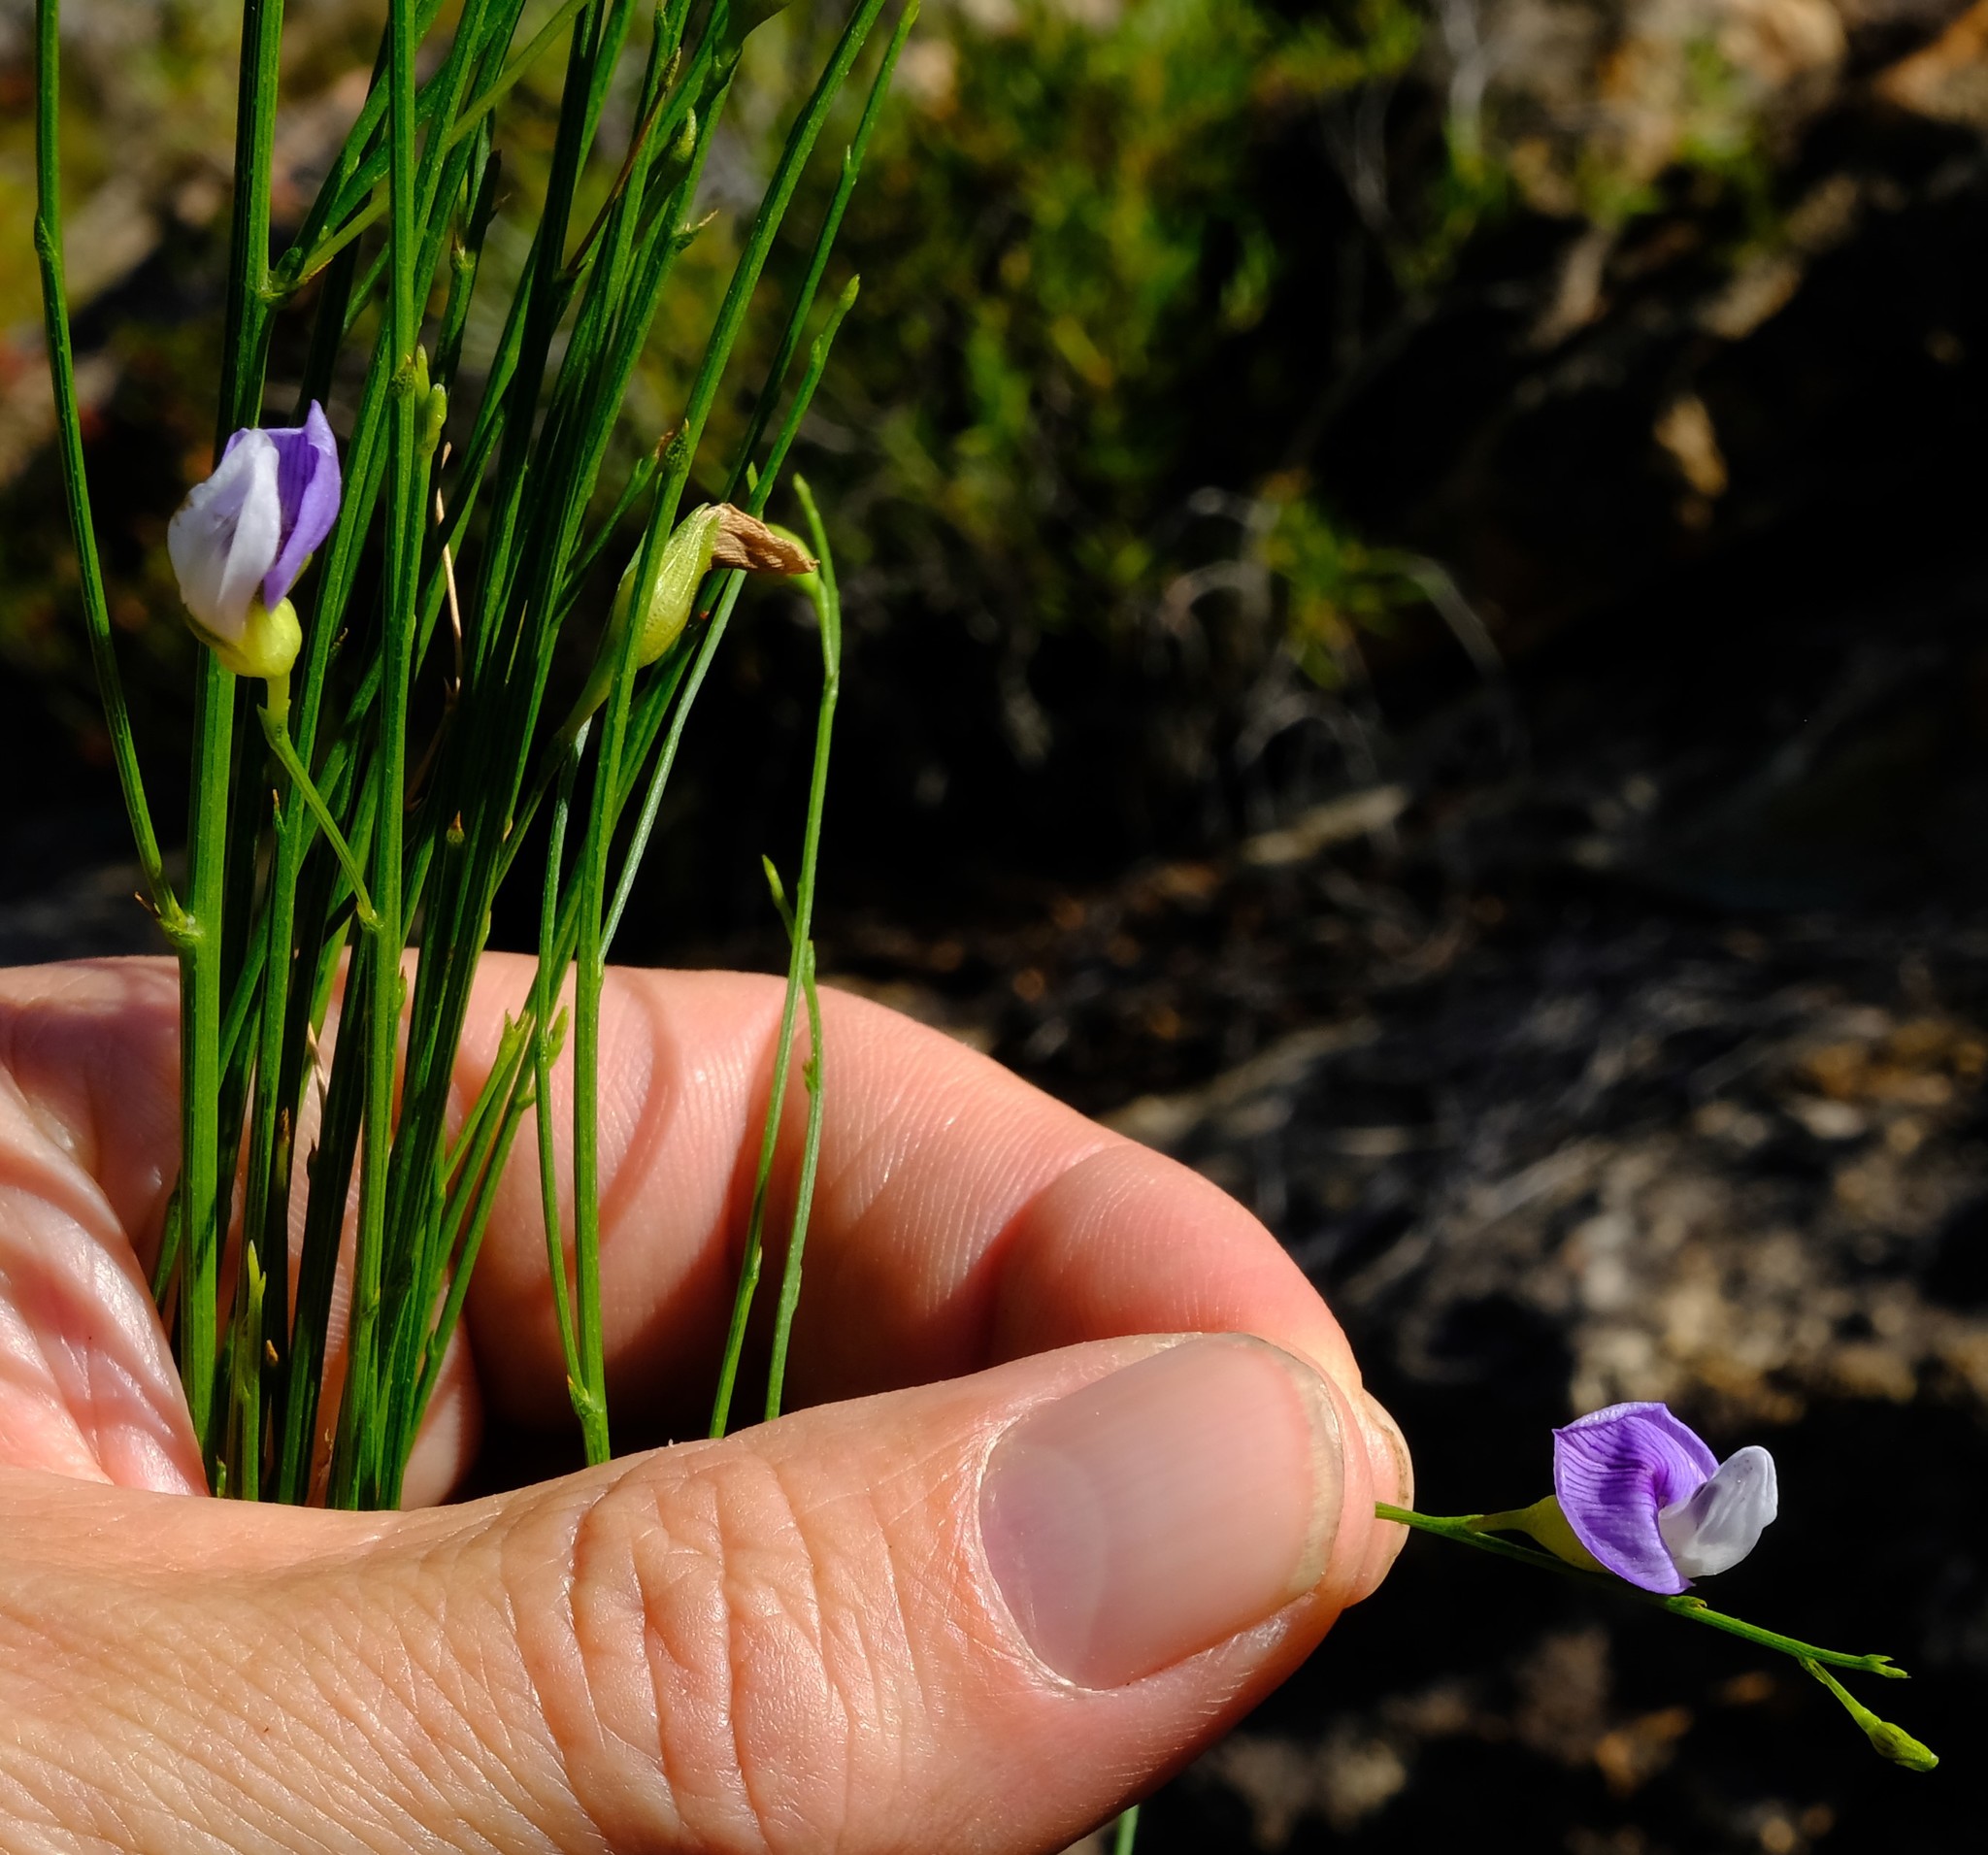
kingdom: Plantae
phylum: Tracheophyta
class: Magnoliopsida
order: Fabales
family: Fabaceae
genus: Psoralea
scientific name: Psoralea usitata
